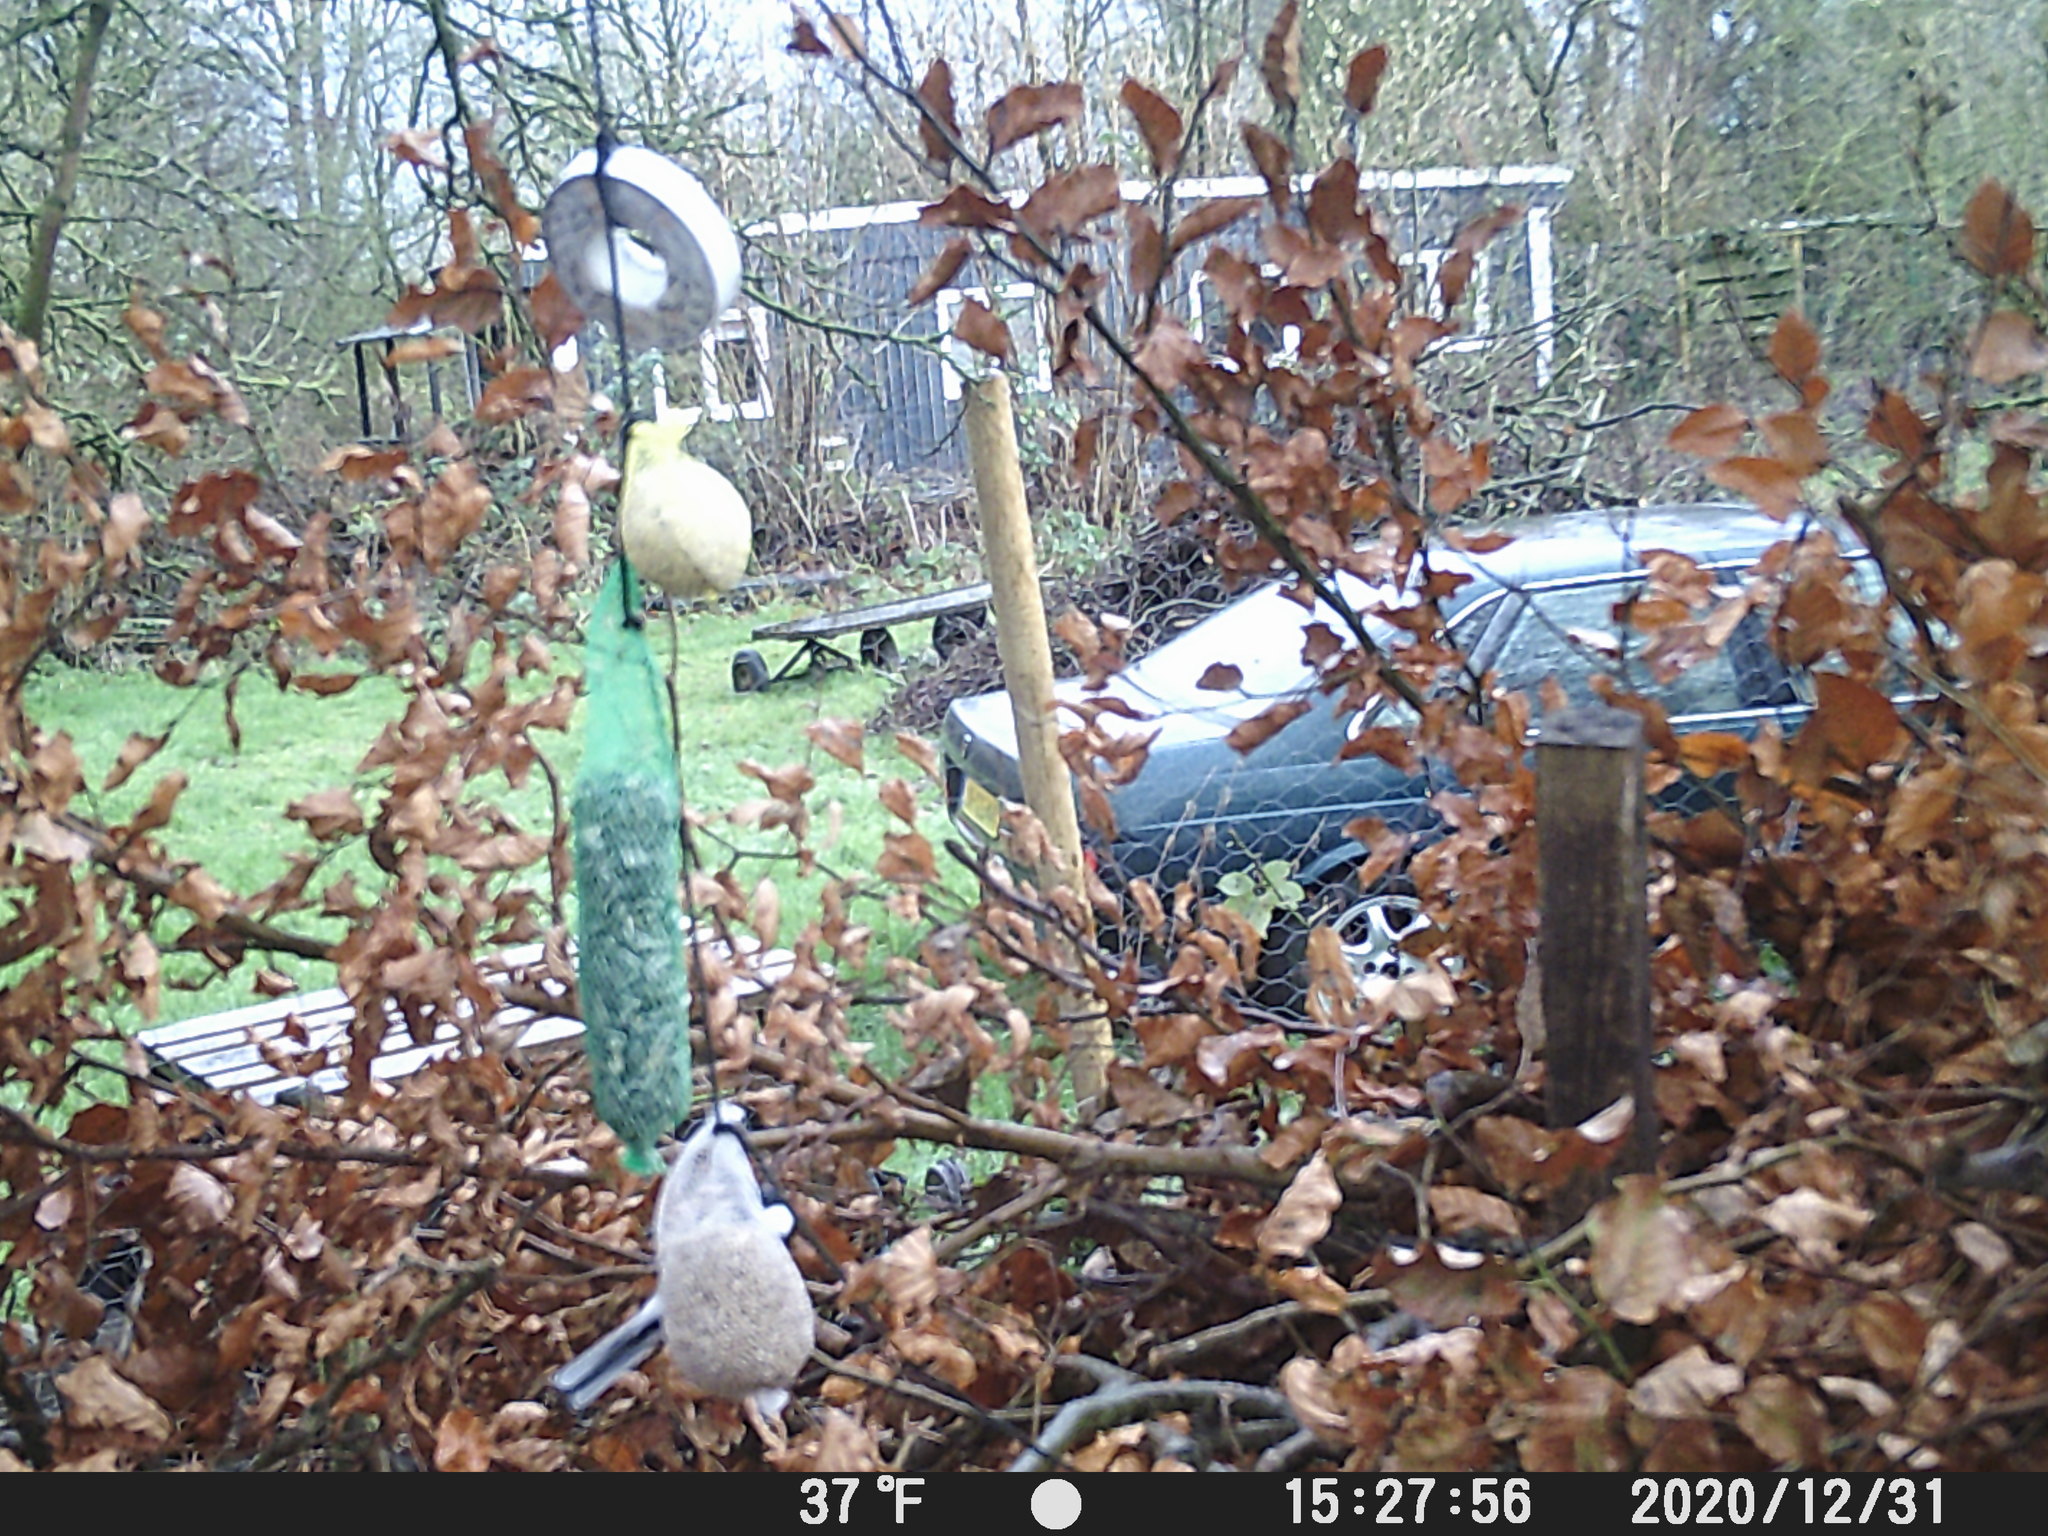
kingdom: Animalia
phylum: Chordata
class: Aves
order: Passeriformes
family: Paridae
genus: Parus
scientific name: Parus major
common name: Great tit
